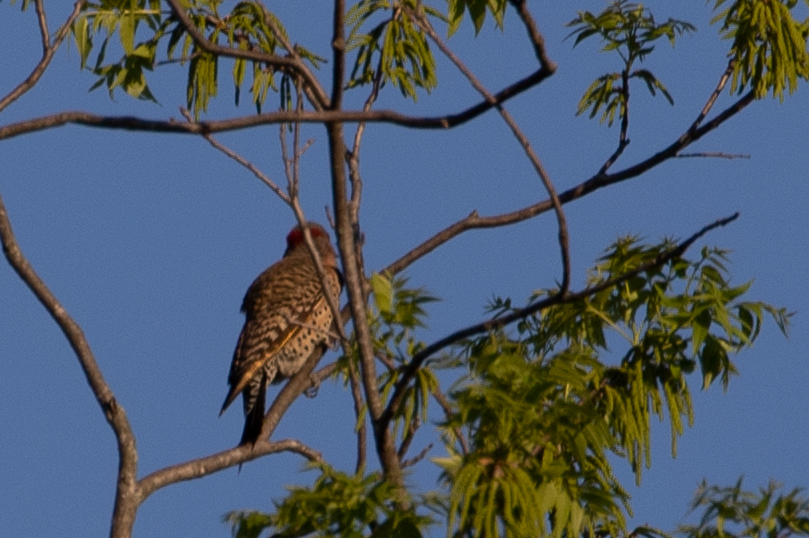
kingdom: Animalia
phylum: Chordata
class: Aves
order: Piciformes
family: Picidae
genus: Colaptes
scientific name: Colaptes auratus
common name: Northern flicker
